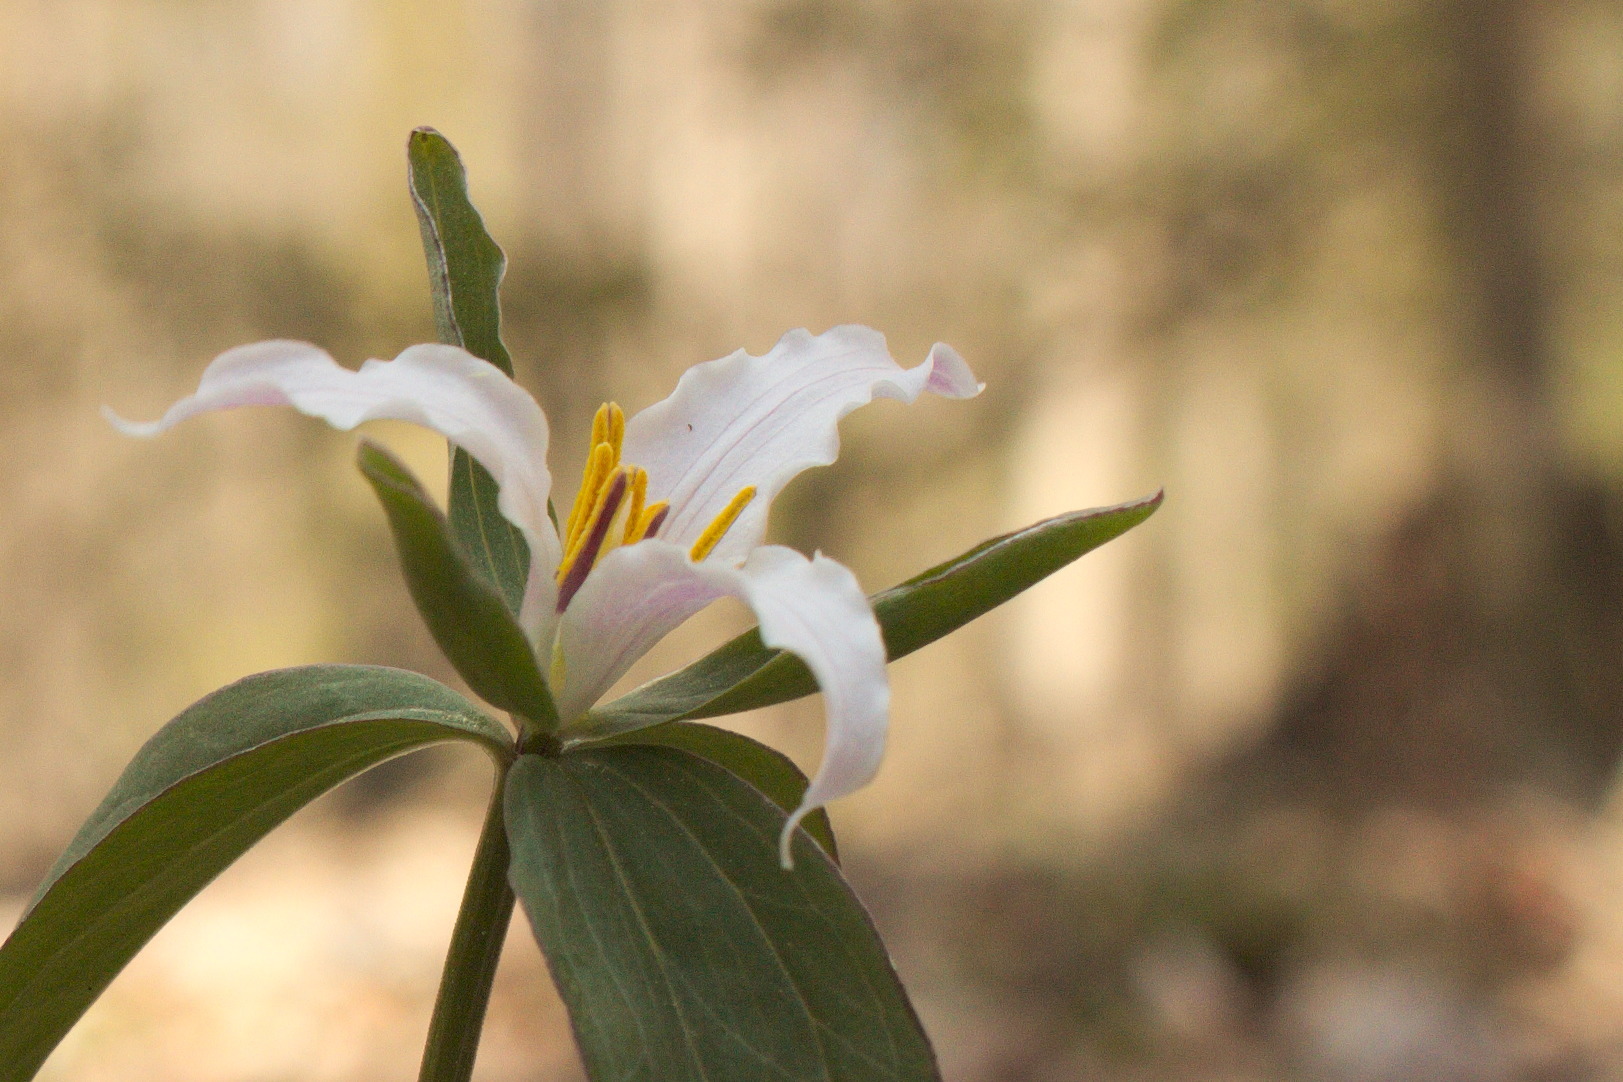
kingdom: Plantae
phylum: Tracheophyta
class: Liliopsida
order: Liliales
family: Melanthiaceae
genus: Trillium
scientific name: Trillium pusillum
